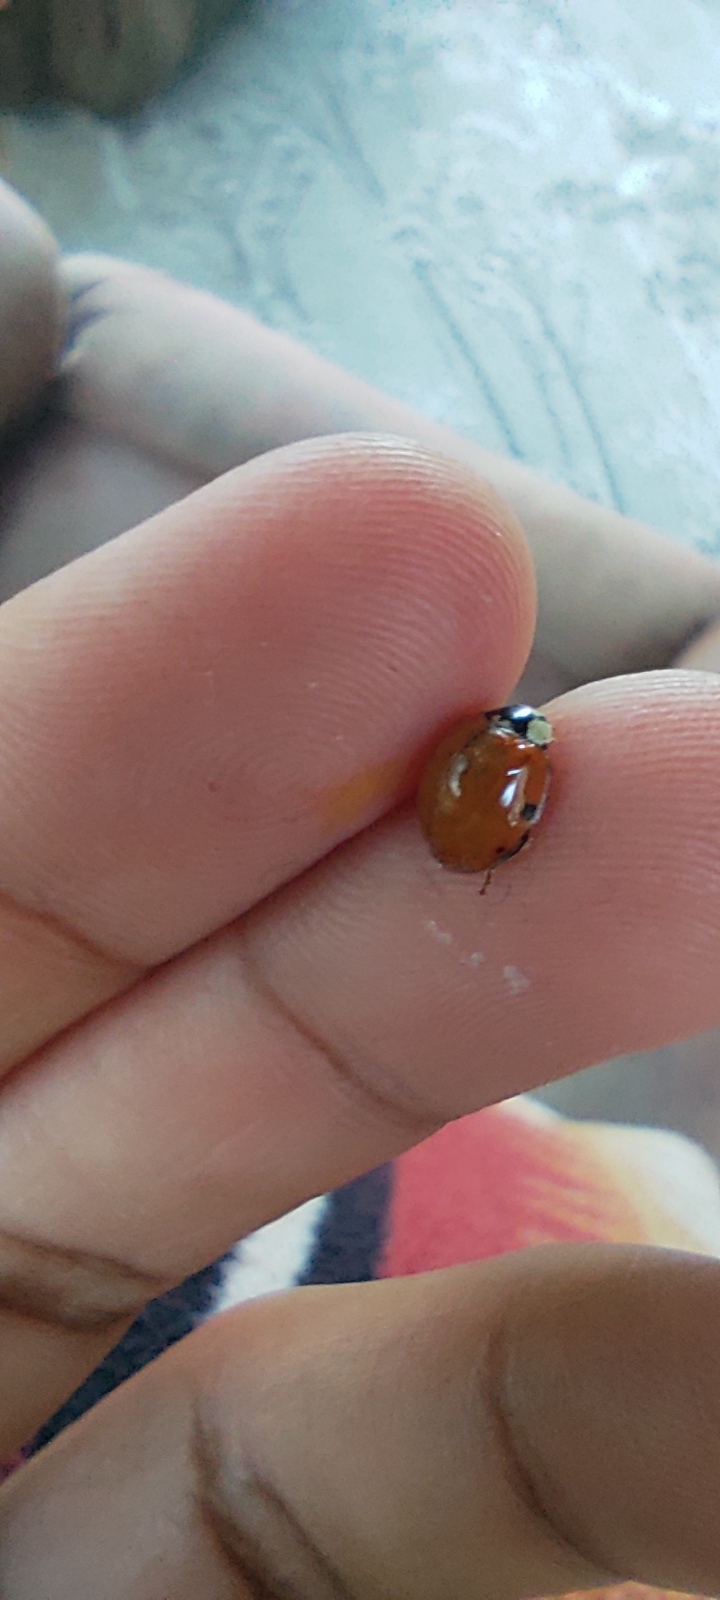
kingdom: Animalia
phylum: Arthropoda
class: Insecta
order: Coleoptera
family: Coccinellidae
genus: Harmonia
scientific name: Harmonia axyridis
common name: Harlequin ladybird
